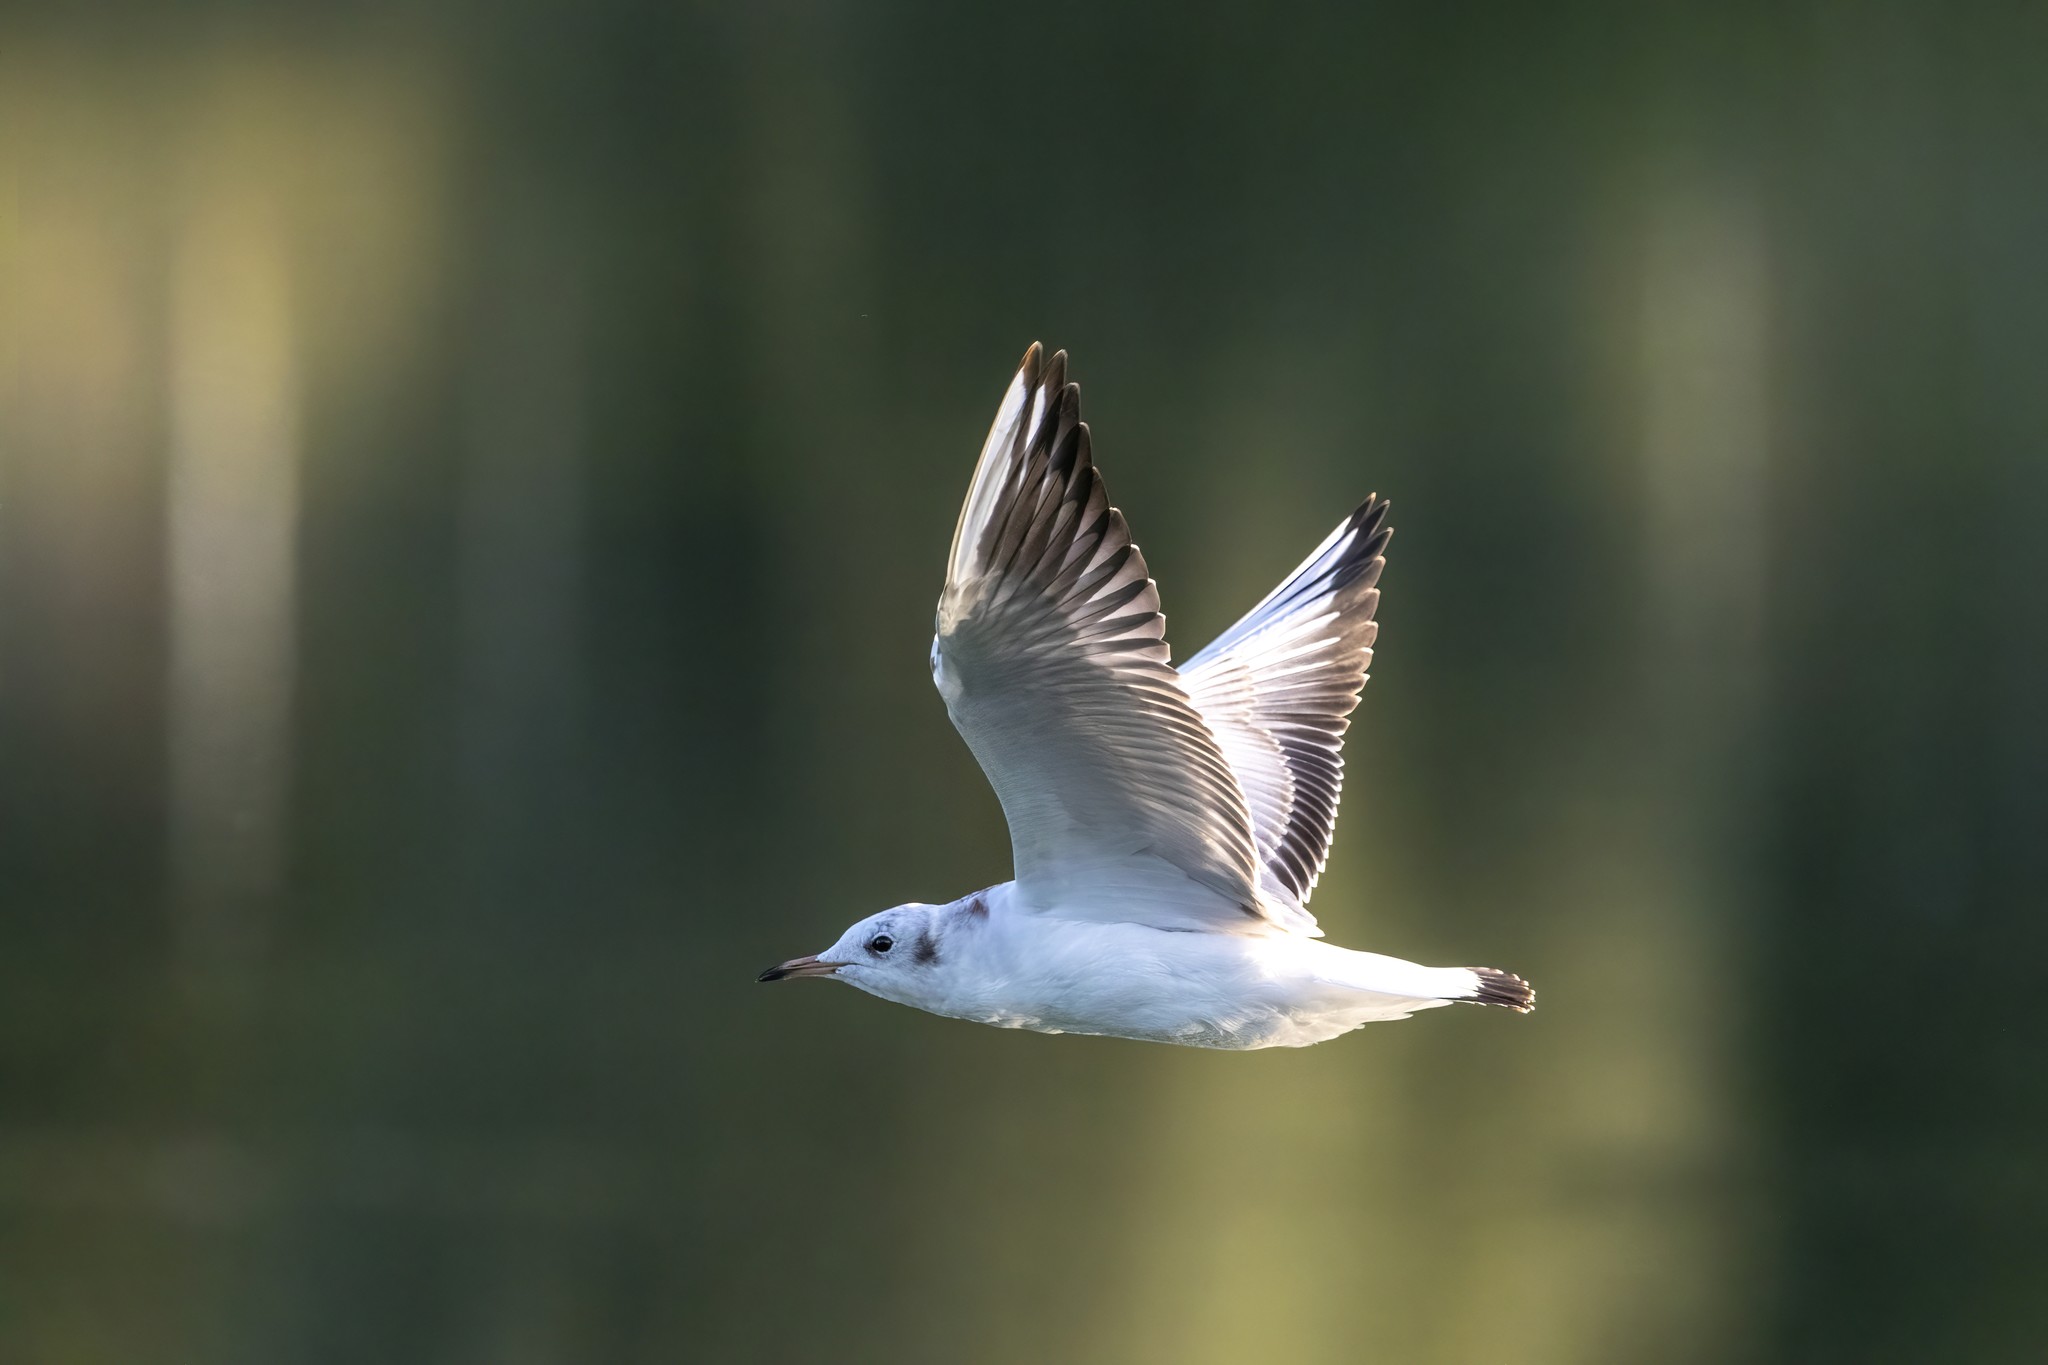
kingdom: Animalia
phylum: Chordata
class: Aves
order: Charadriiformes
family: Laridae
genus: Chroicocephalus
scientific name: Chroicocephalus ridibundus
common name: Black-headed gull
